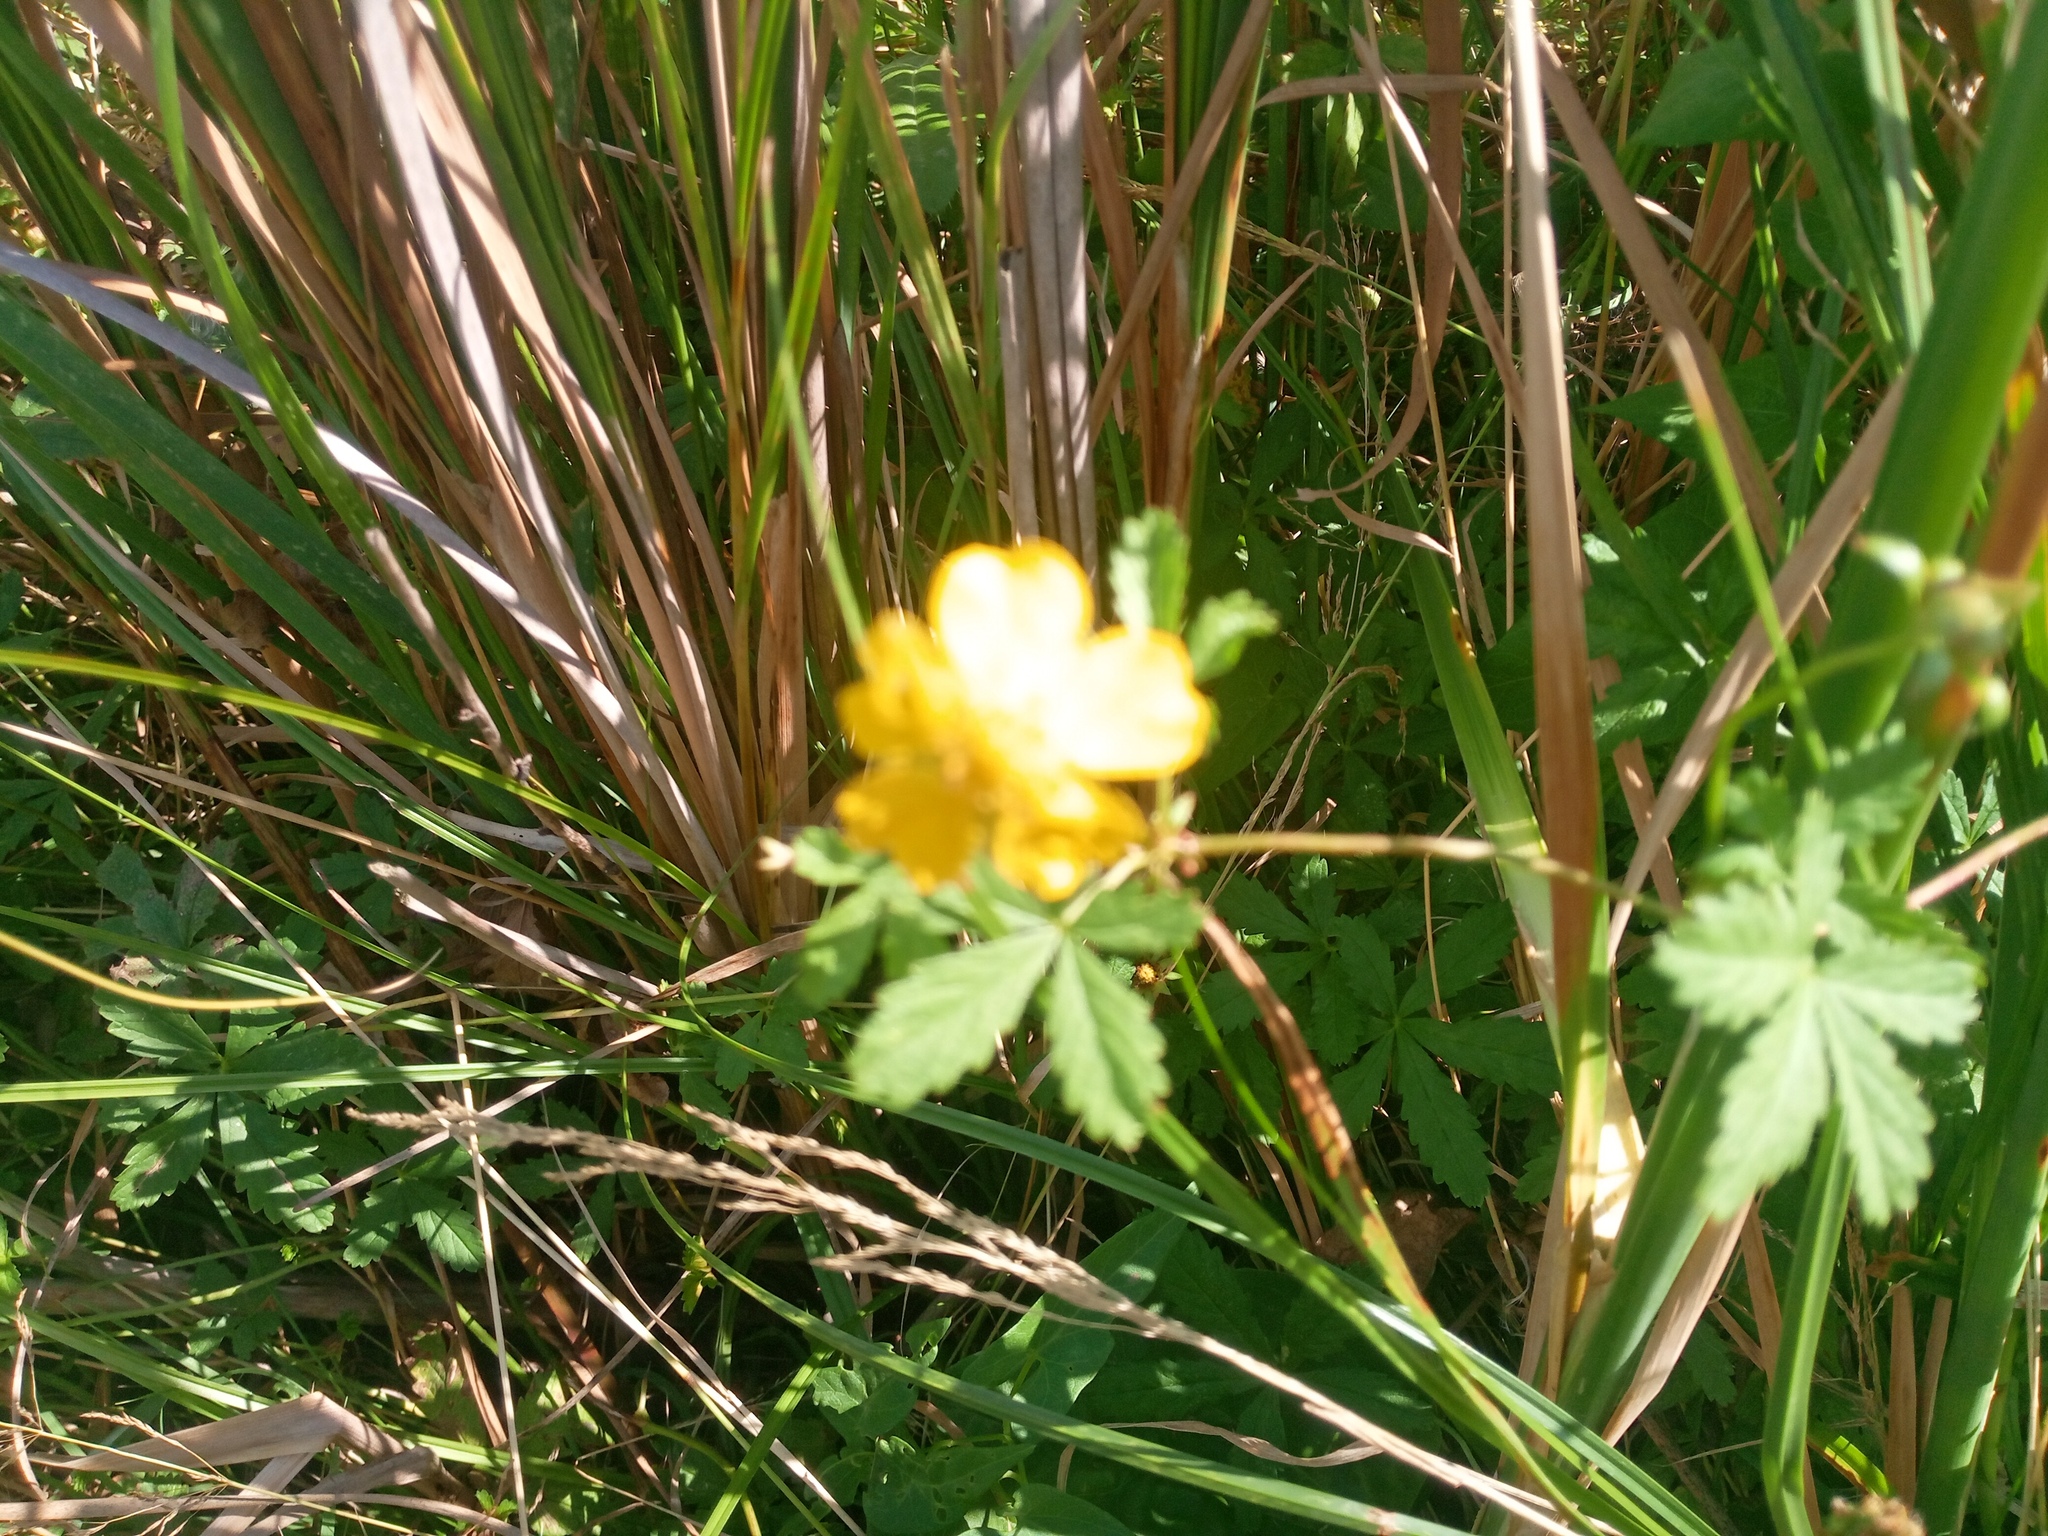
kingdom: Plantae
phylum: Tracheophyta
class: Magnoliopsida
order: Rosales
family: Rosaceae
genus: Potentilla
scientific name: Potentilla reptans
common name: Creeping cinquefoil
